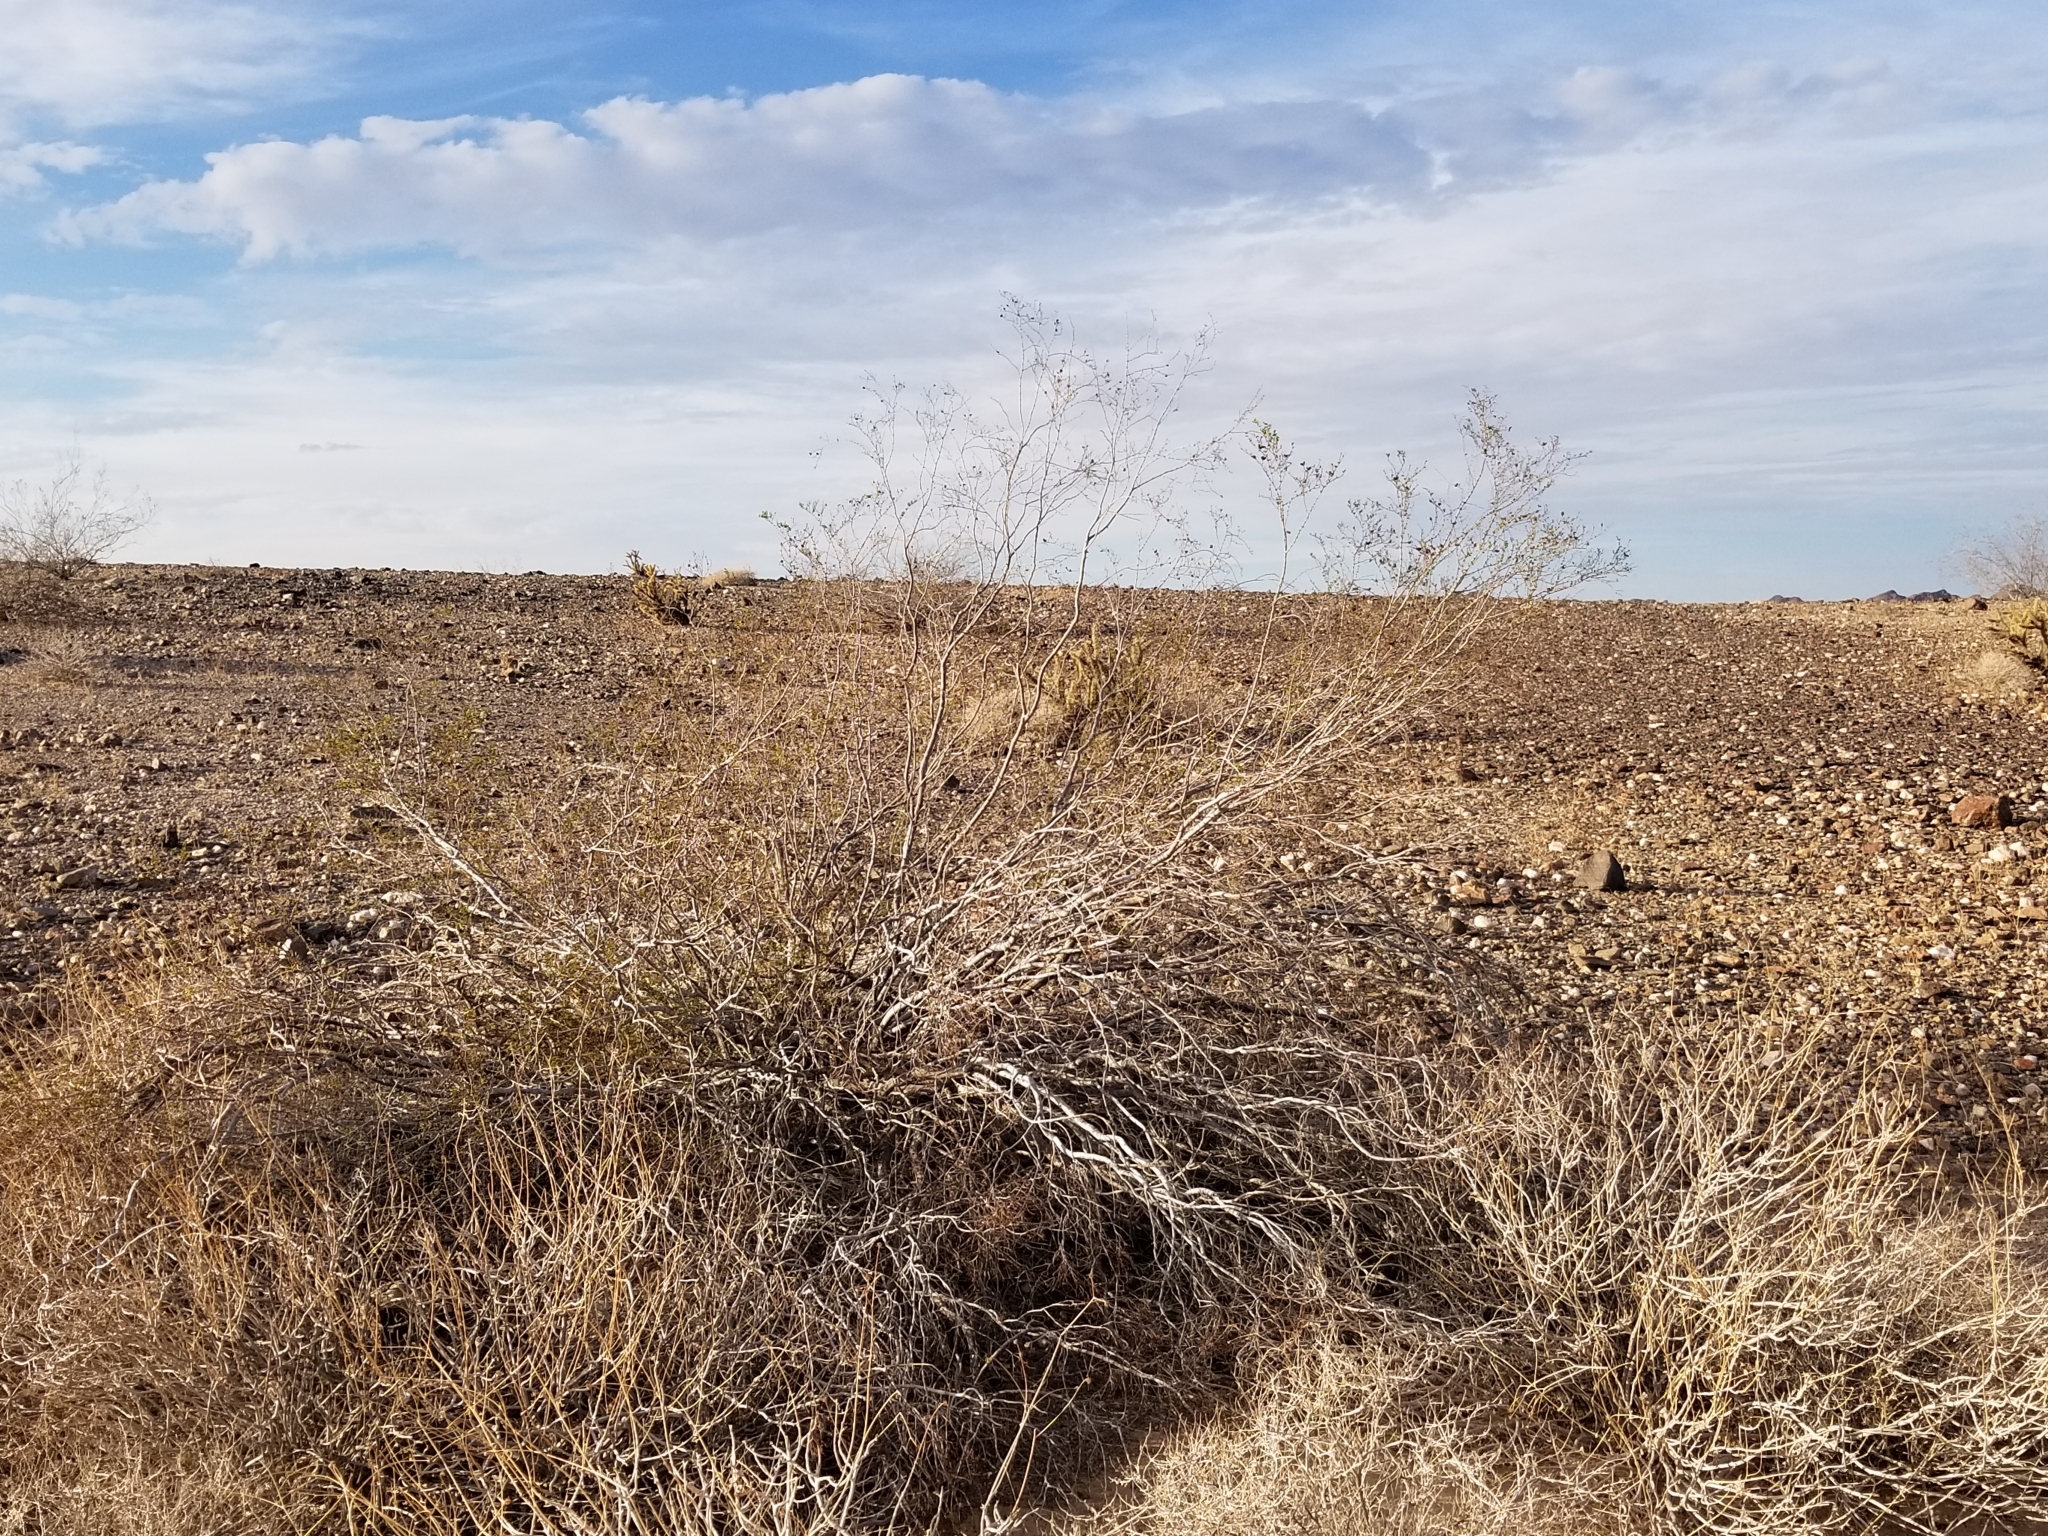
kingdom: Plantae
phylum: Tracheophyta
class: Magnoliopsida
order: Zygophyllales
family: Zygophyllaceae
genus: Larrea
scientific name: Larrea tridentata
